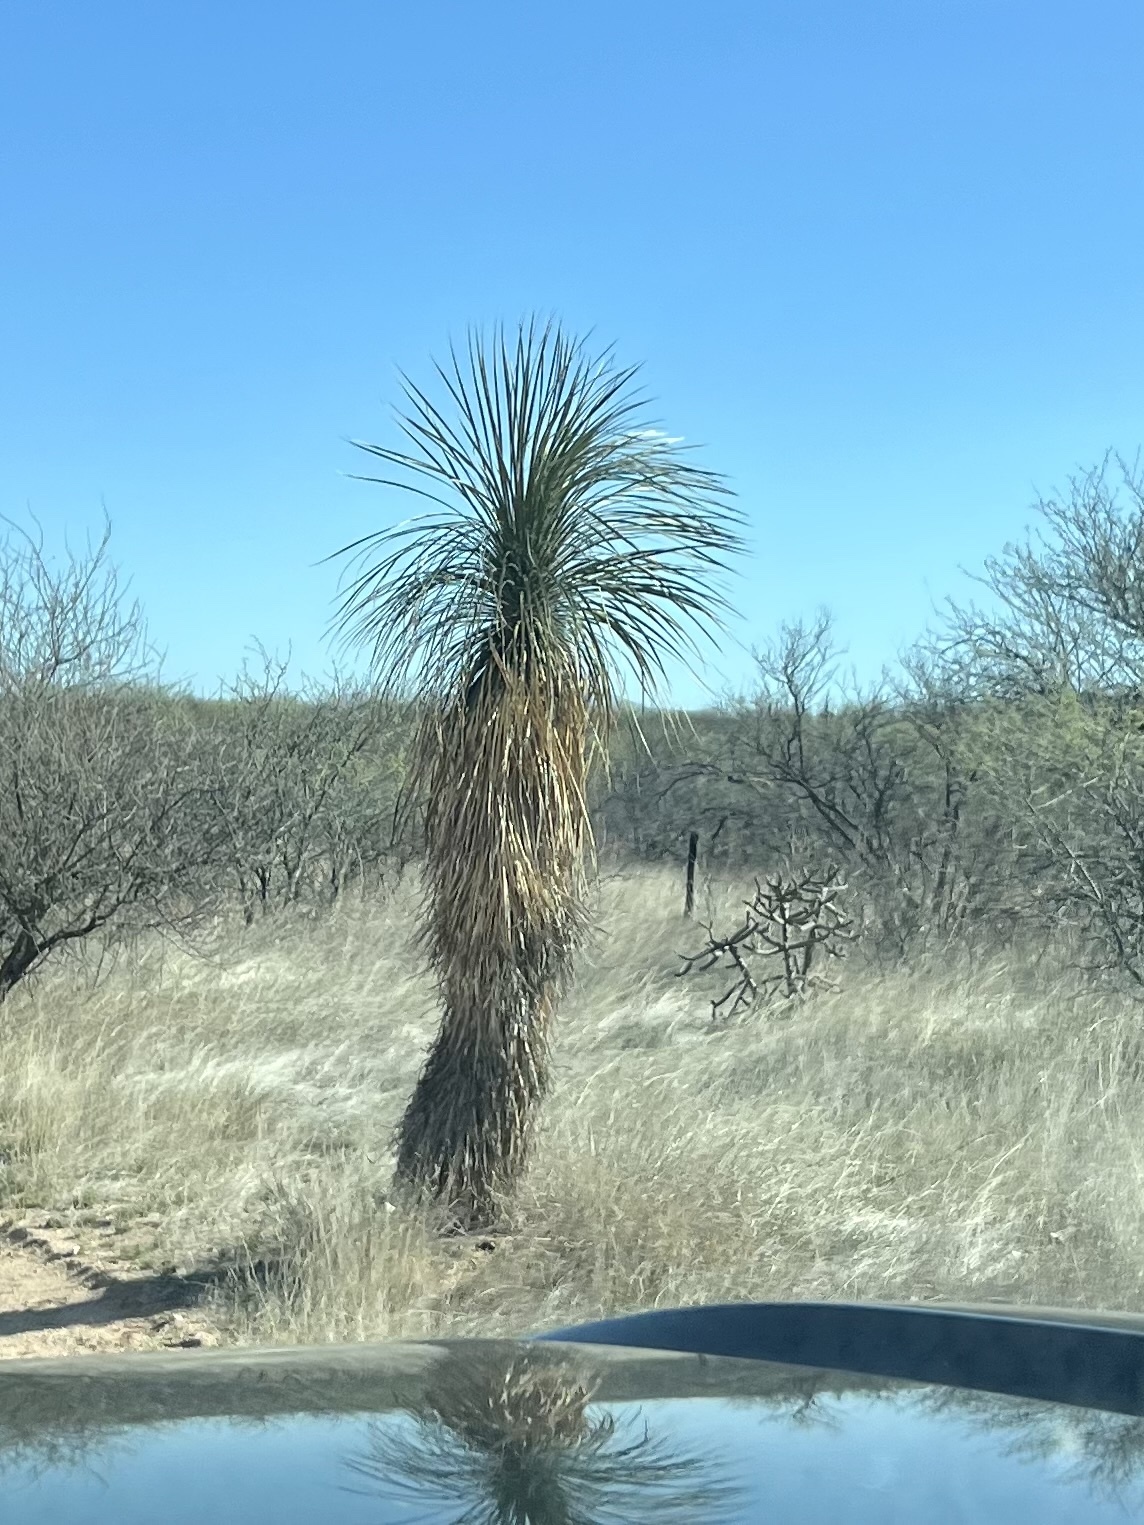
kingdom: Plantae
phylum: Tracheophyta
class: Liliopsida
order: Asparagales
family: Asparagaceae
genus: Yucca
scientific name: Yucca elata
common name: Palmella
